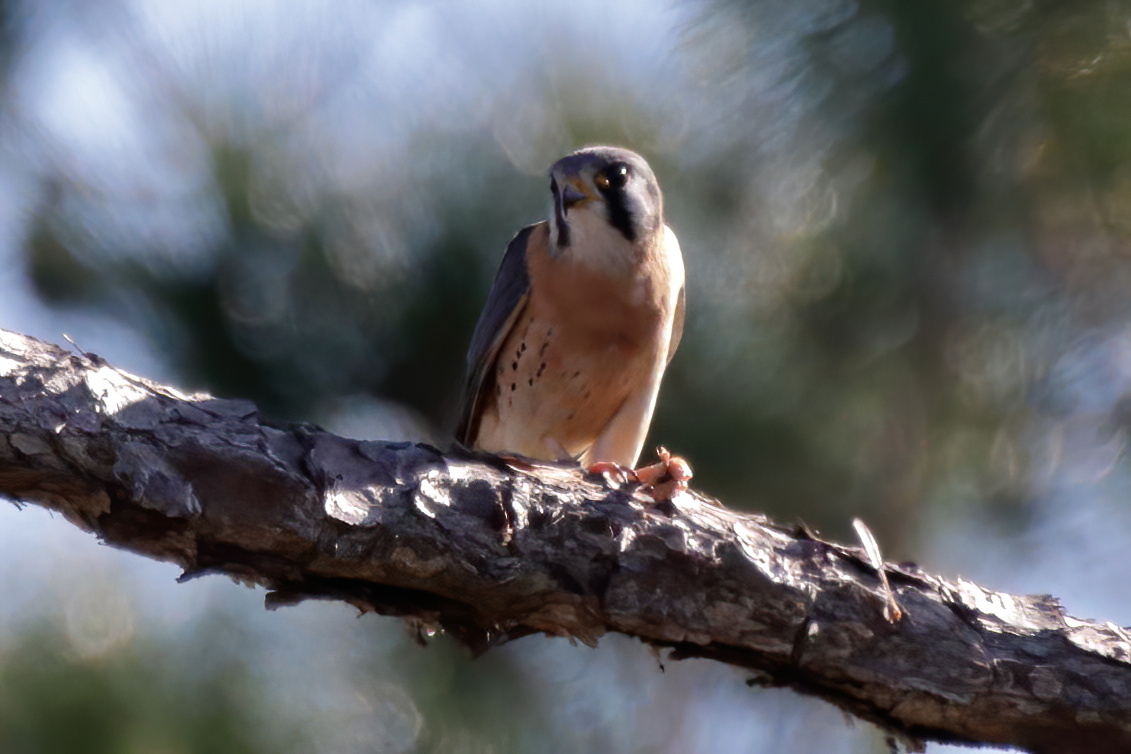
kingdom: Animalia
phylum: Chordata
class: Aves
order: Falconiformes
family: Falconidae
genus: Falco
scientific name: Falco sparverius
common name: American kestrel
